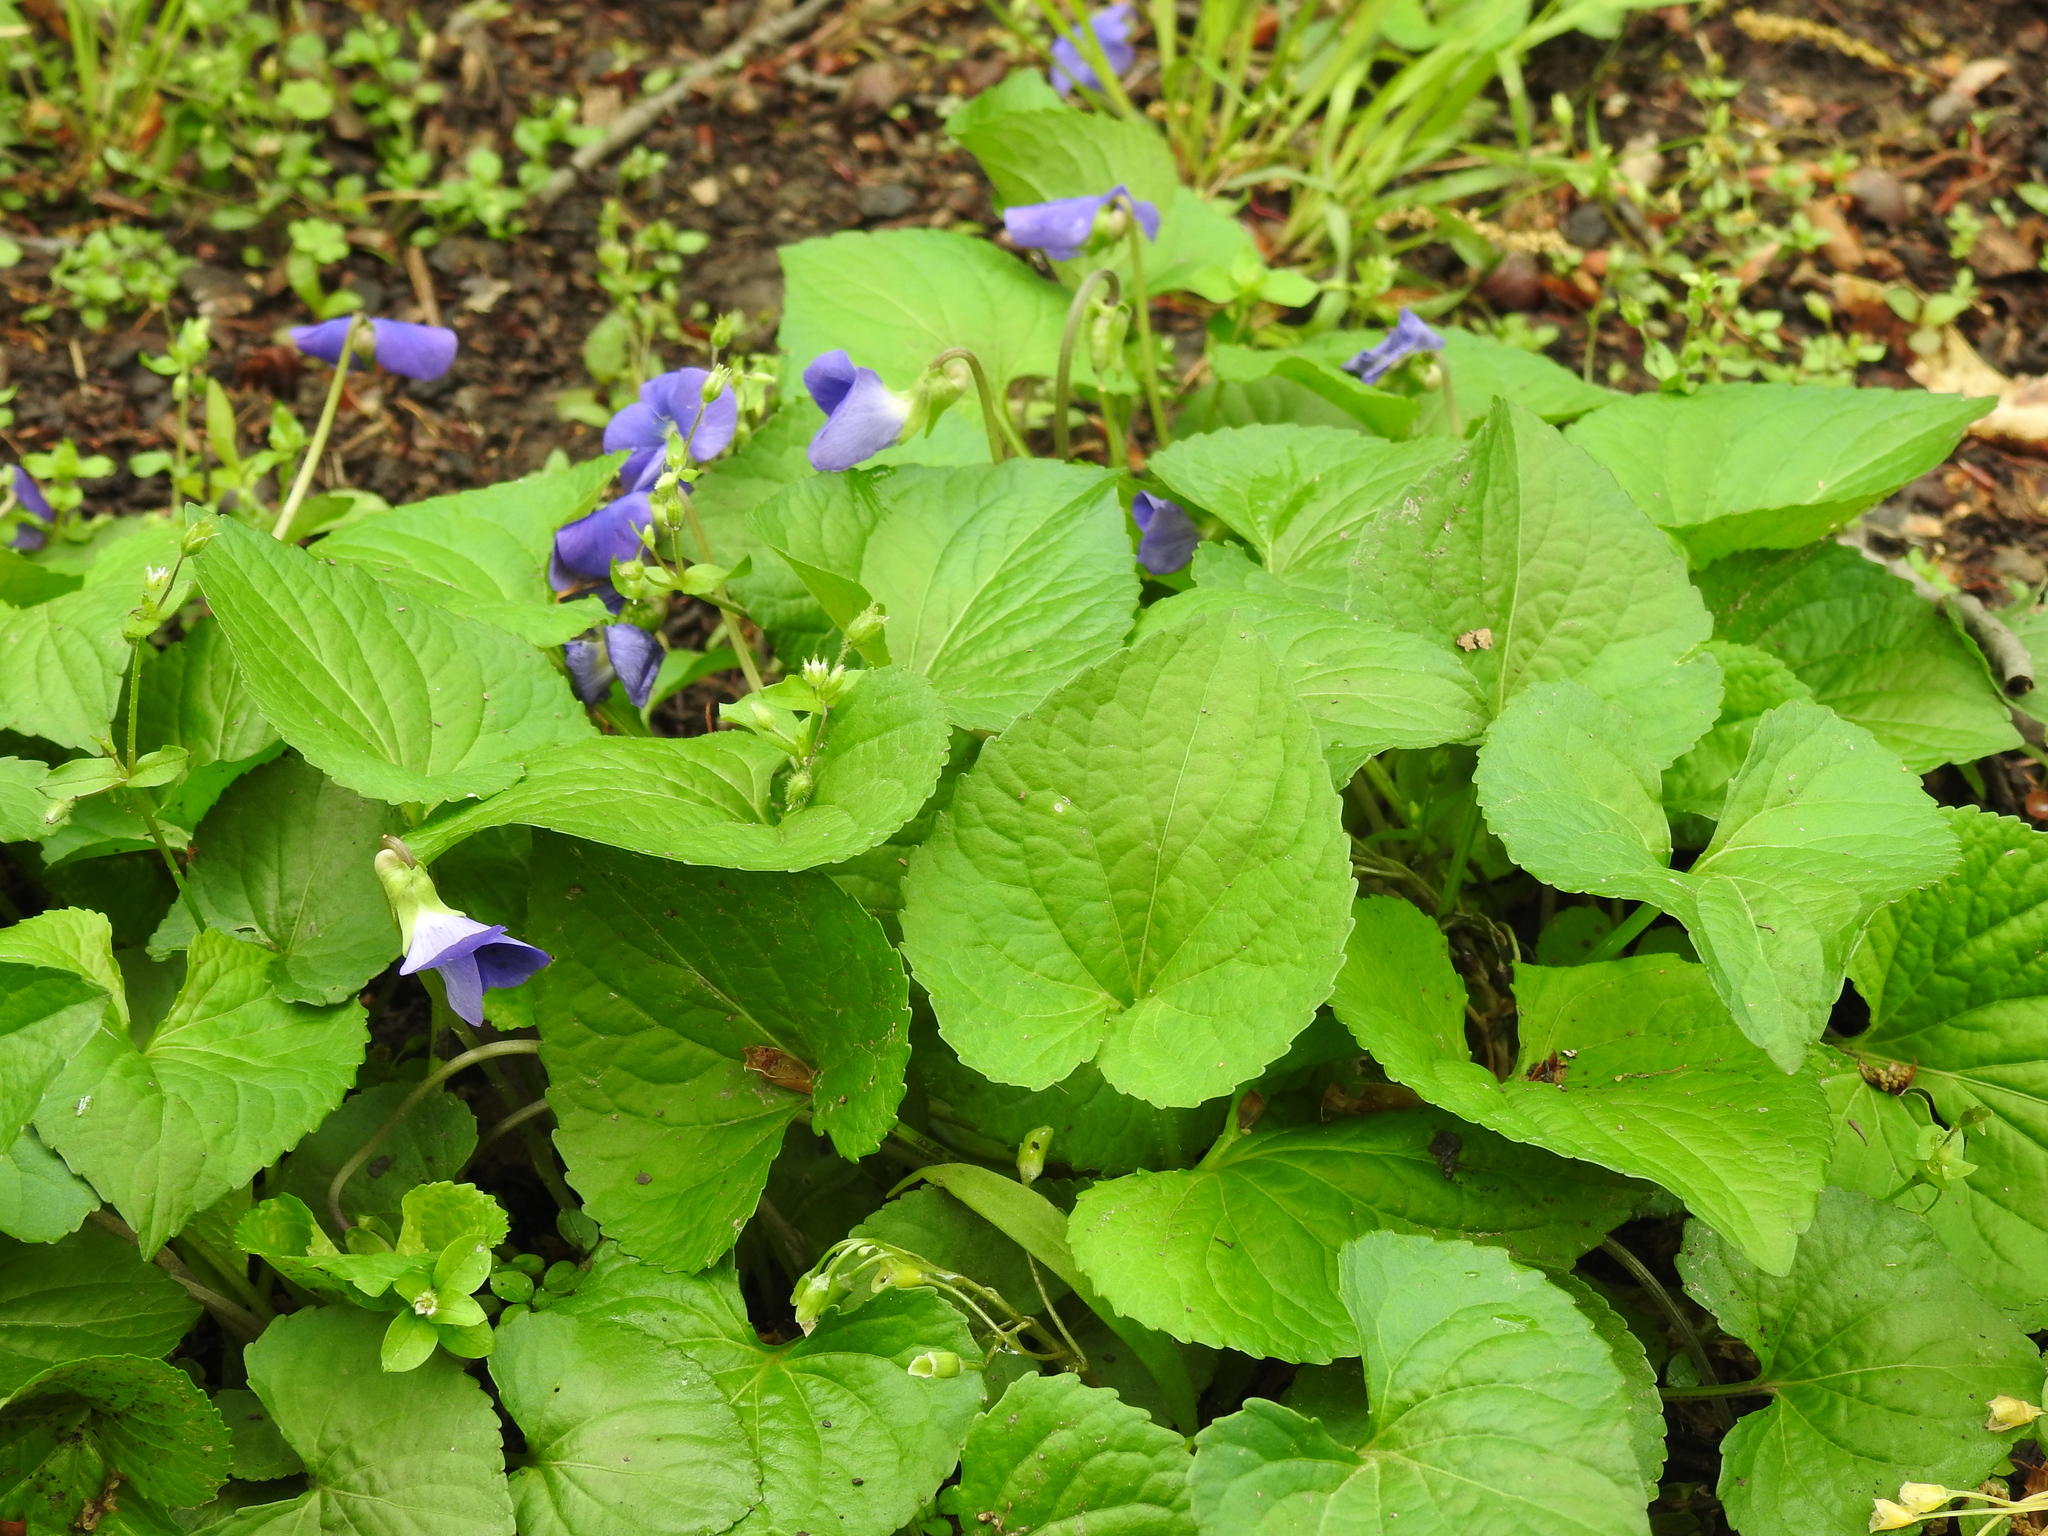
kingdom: Plantae
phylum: Tracheophyta
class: Magnoliopsida
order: Malpighiales
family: Violaceae
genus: Viola
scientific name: Viola sororia
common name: Dooryard violet
